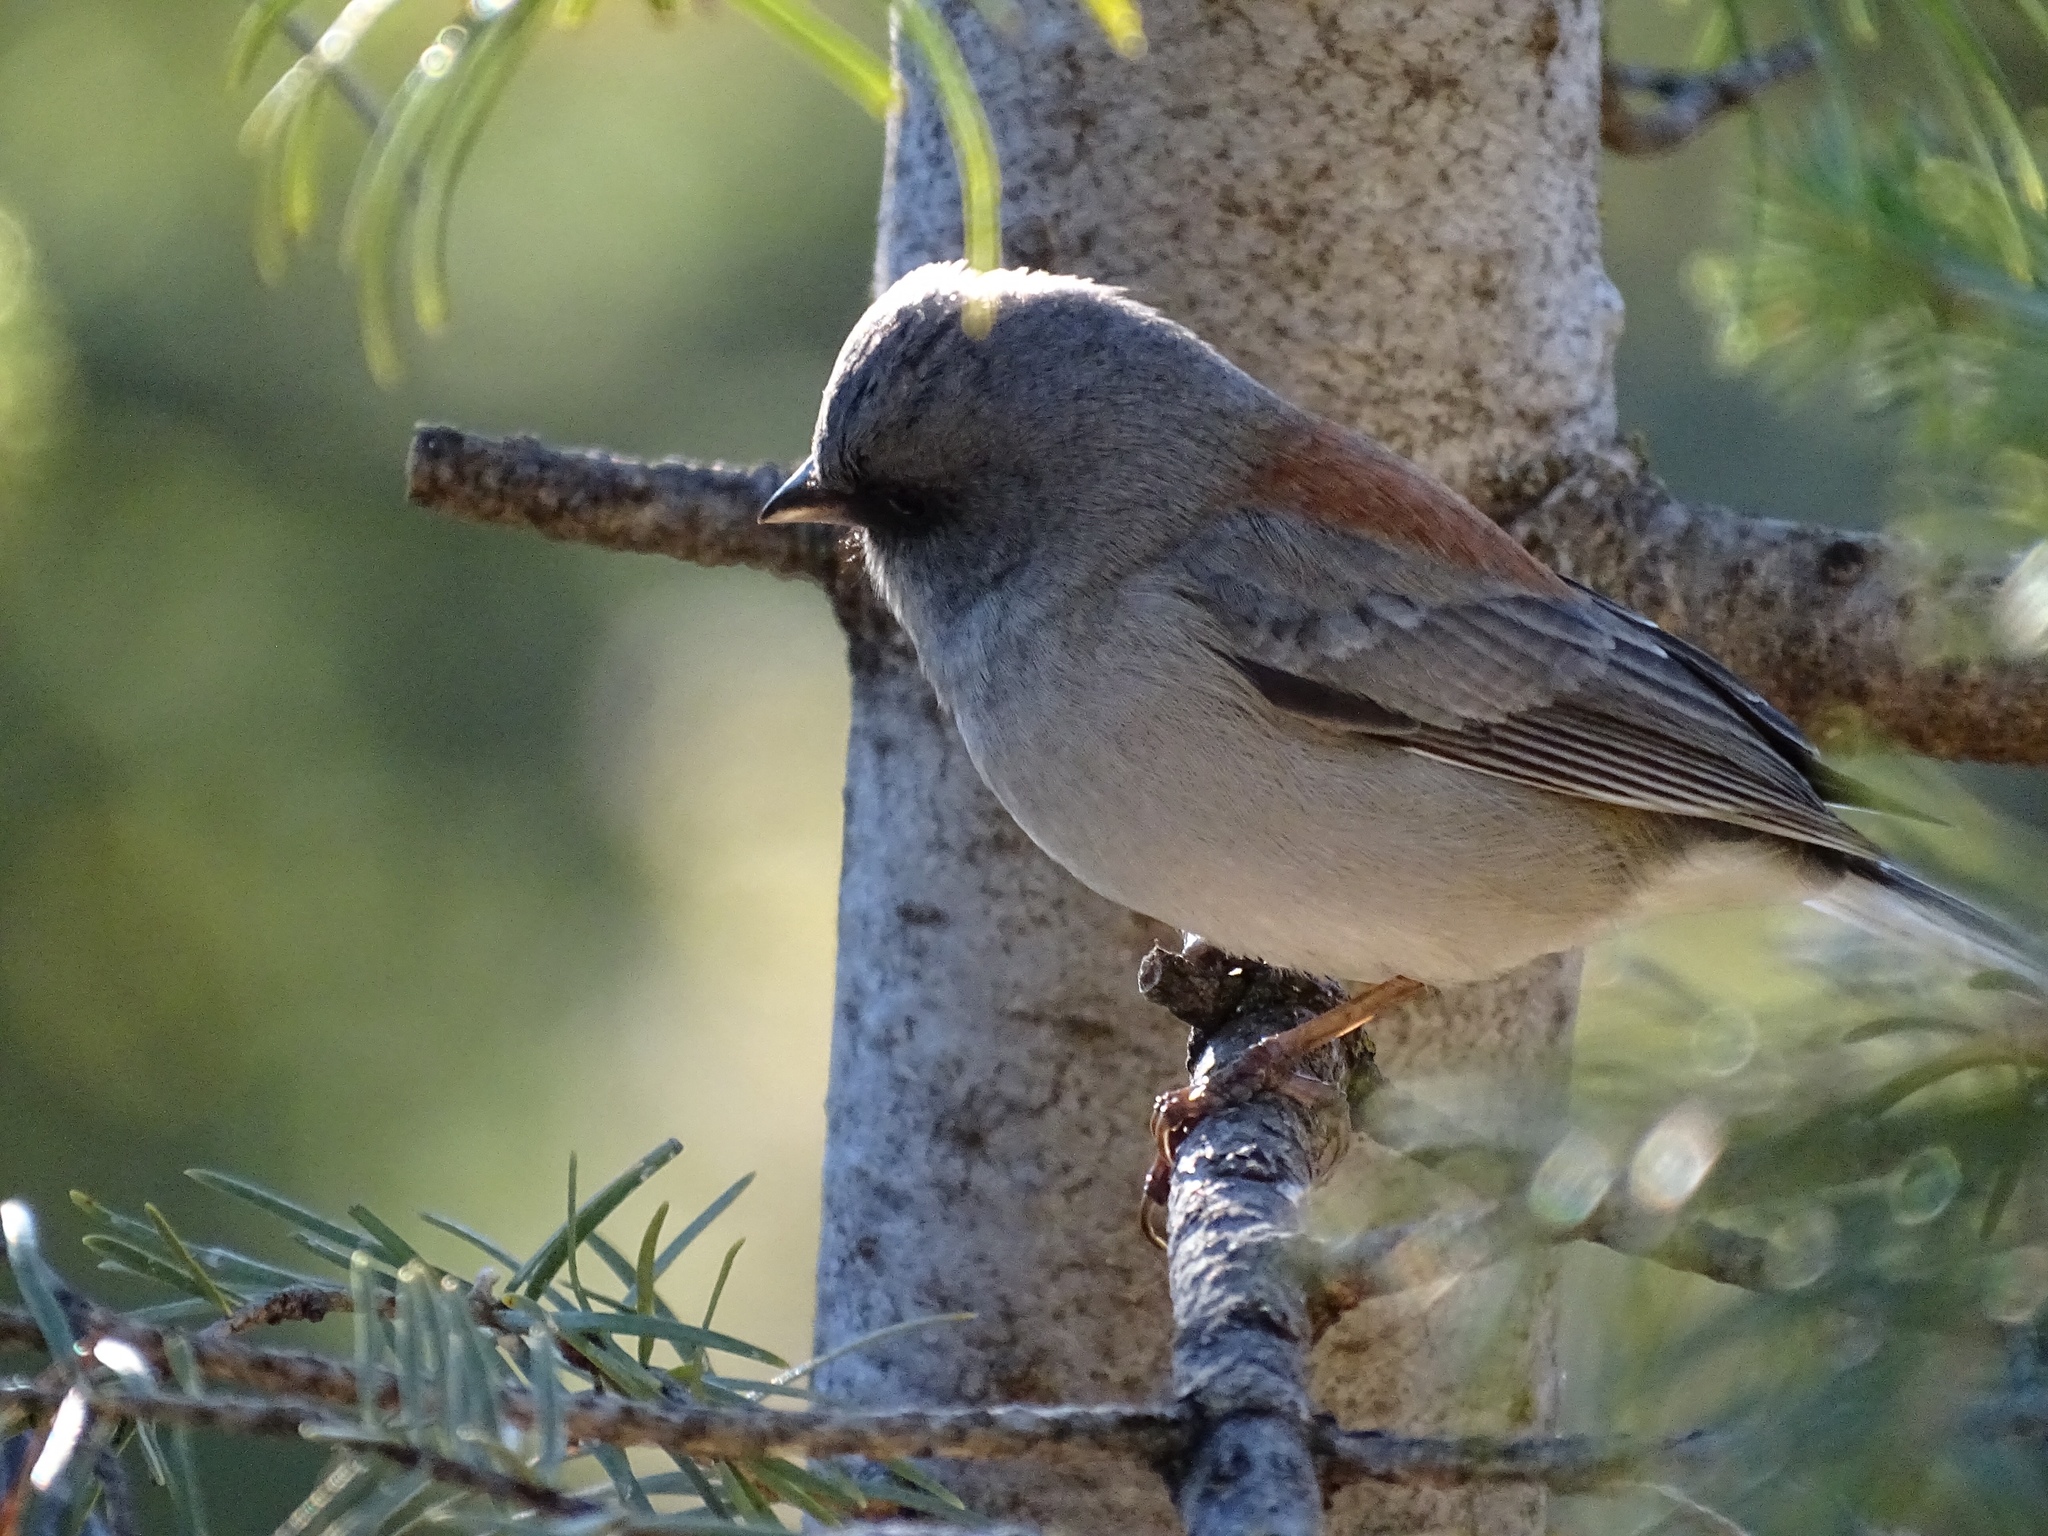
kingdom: Animalia
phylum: Chordata
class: Aves
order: Passeriformes
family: Passerellidae
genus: Junco
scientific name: Junco hyemalis
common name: Dark-eyed junco
